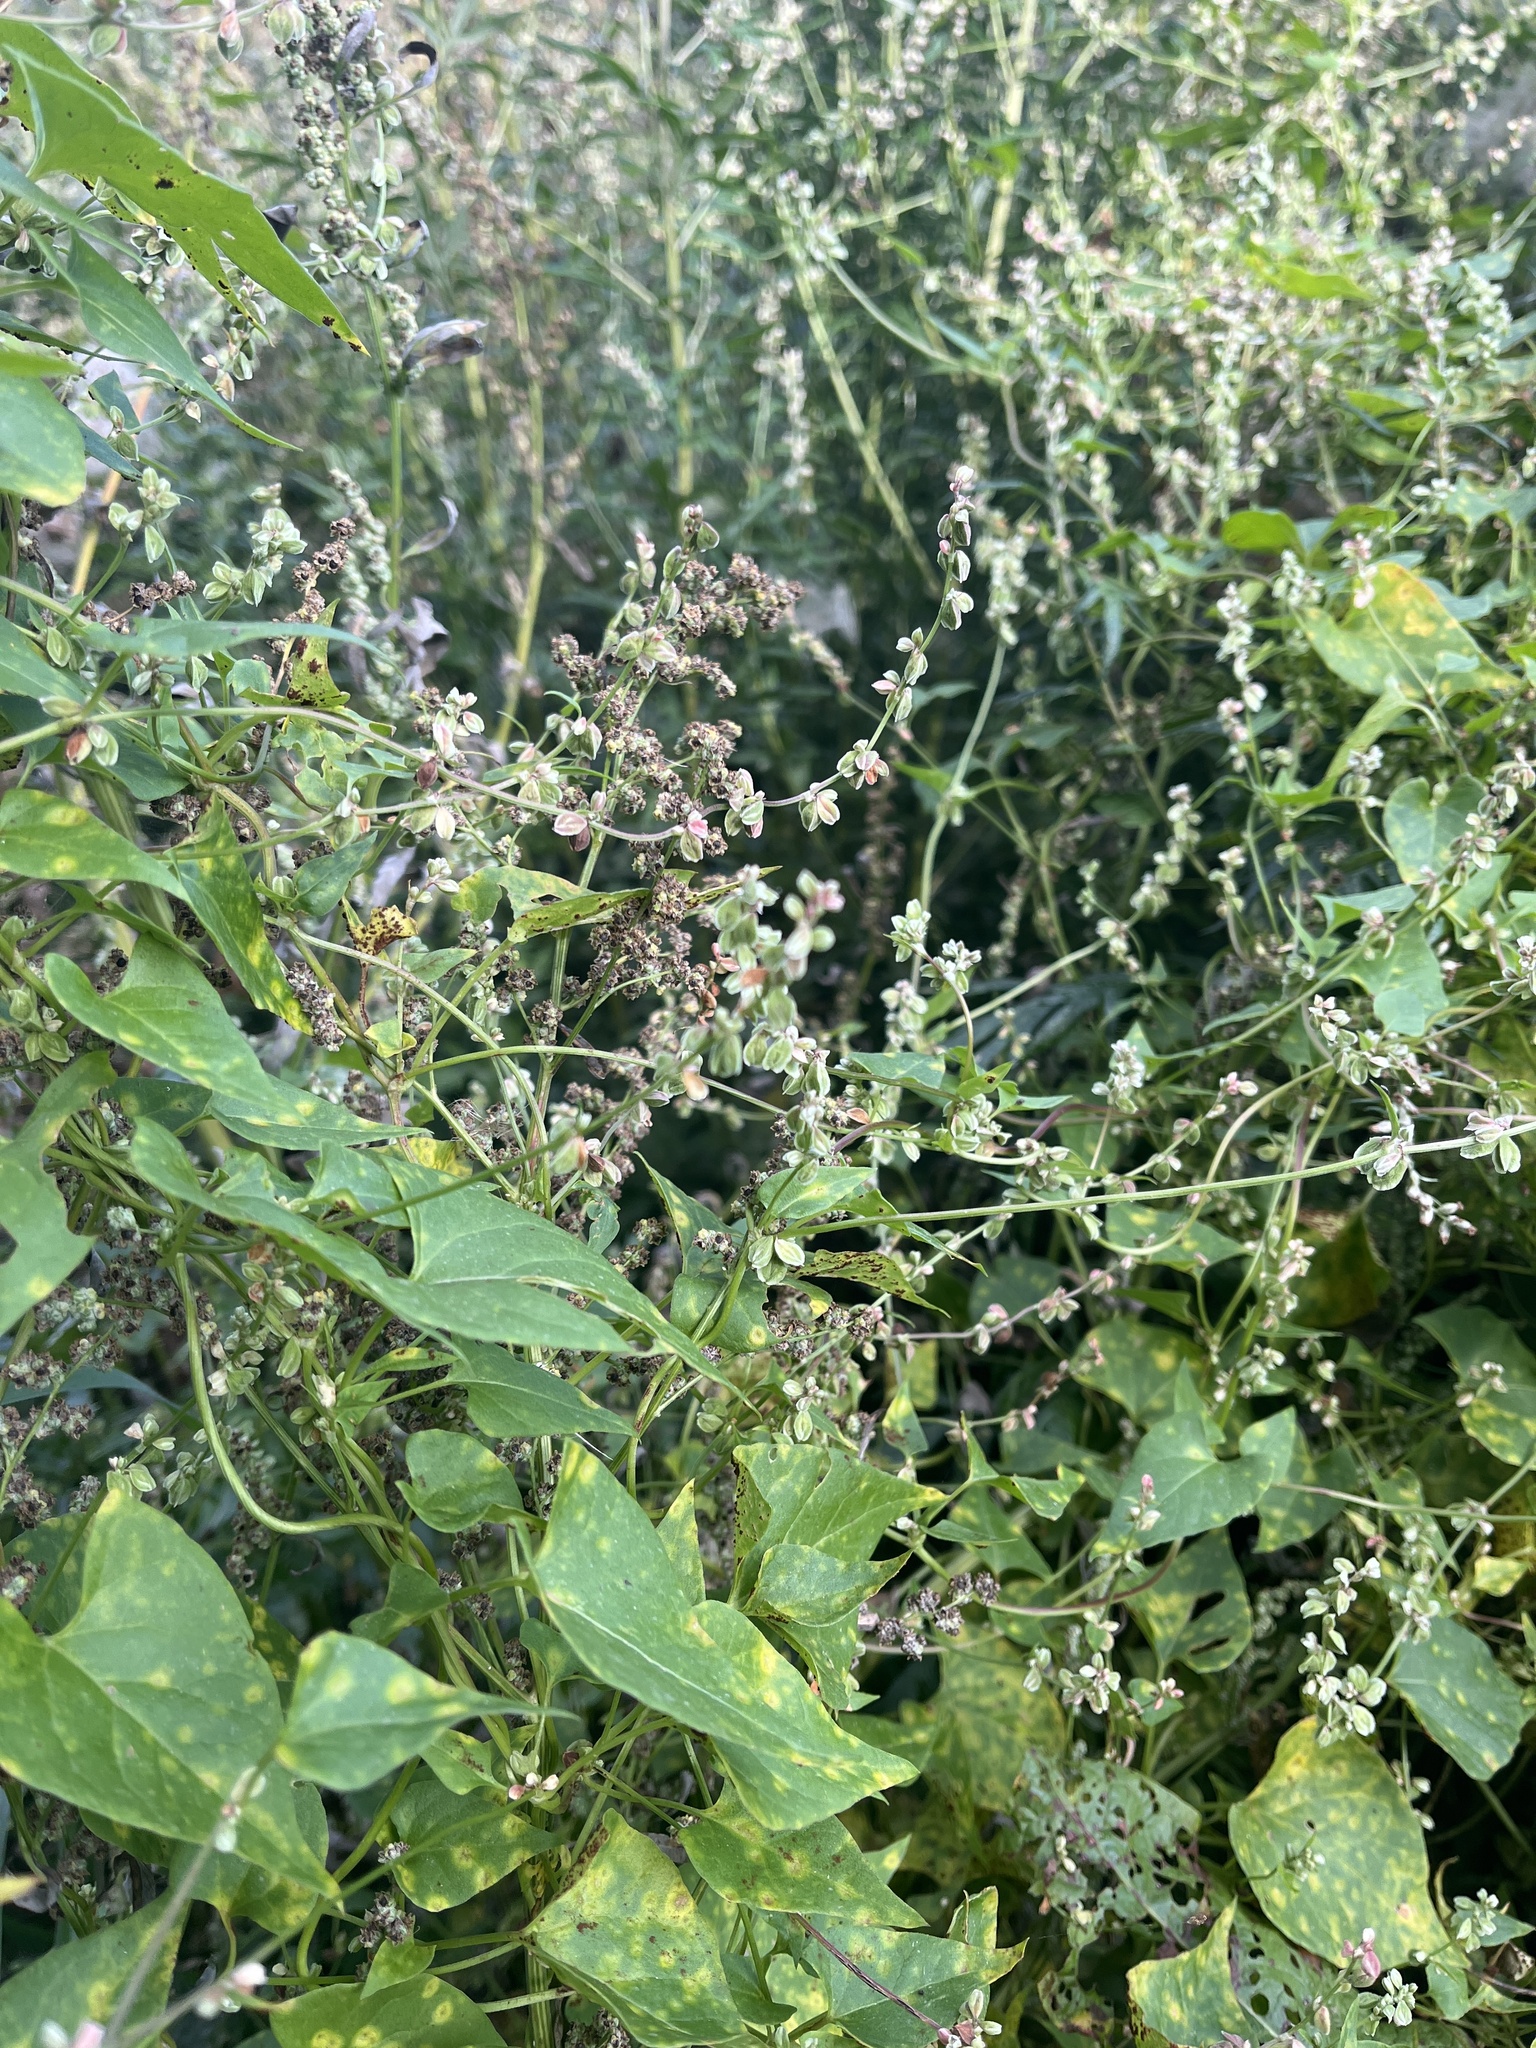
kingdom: Plantae
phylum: Tracheophyta
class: Magnoliopsida
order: Caryophyllales
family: Polygonaceae
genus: Fallopia
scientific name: Fallopia convolvulus
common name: Black bindweed
